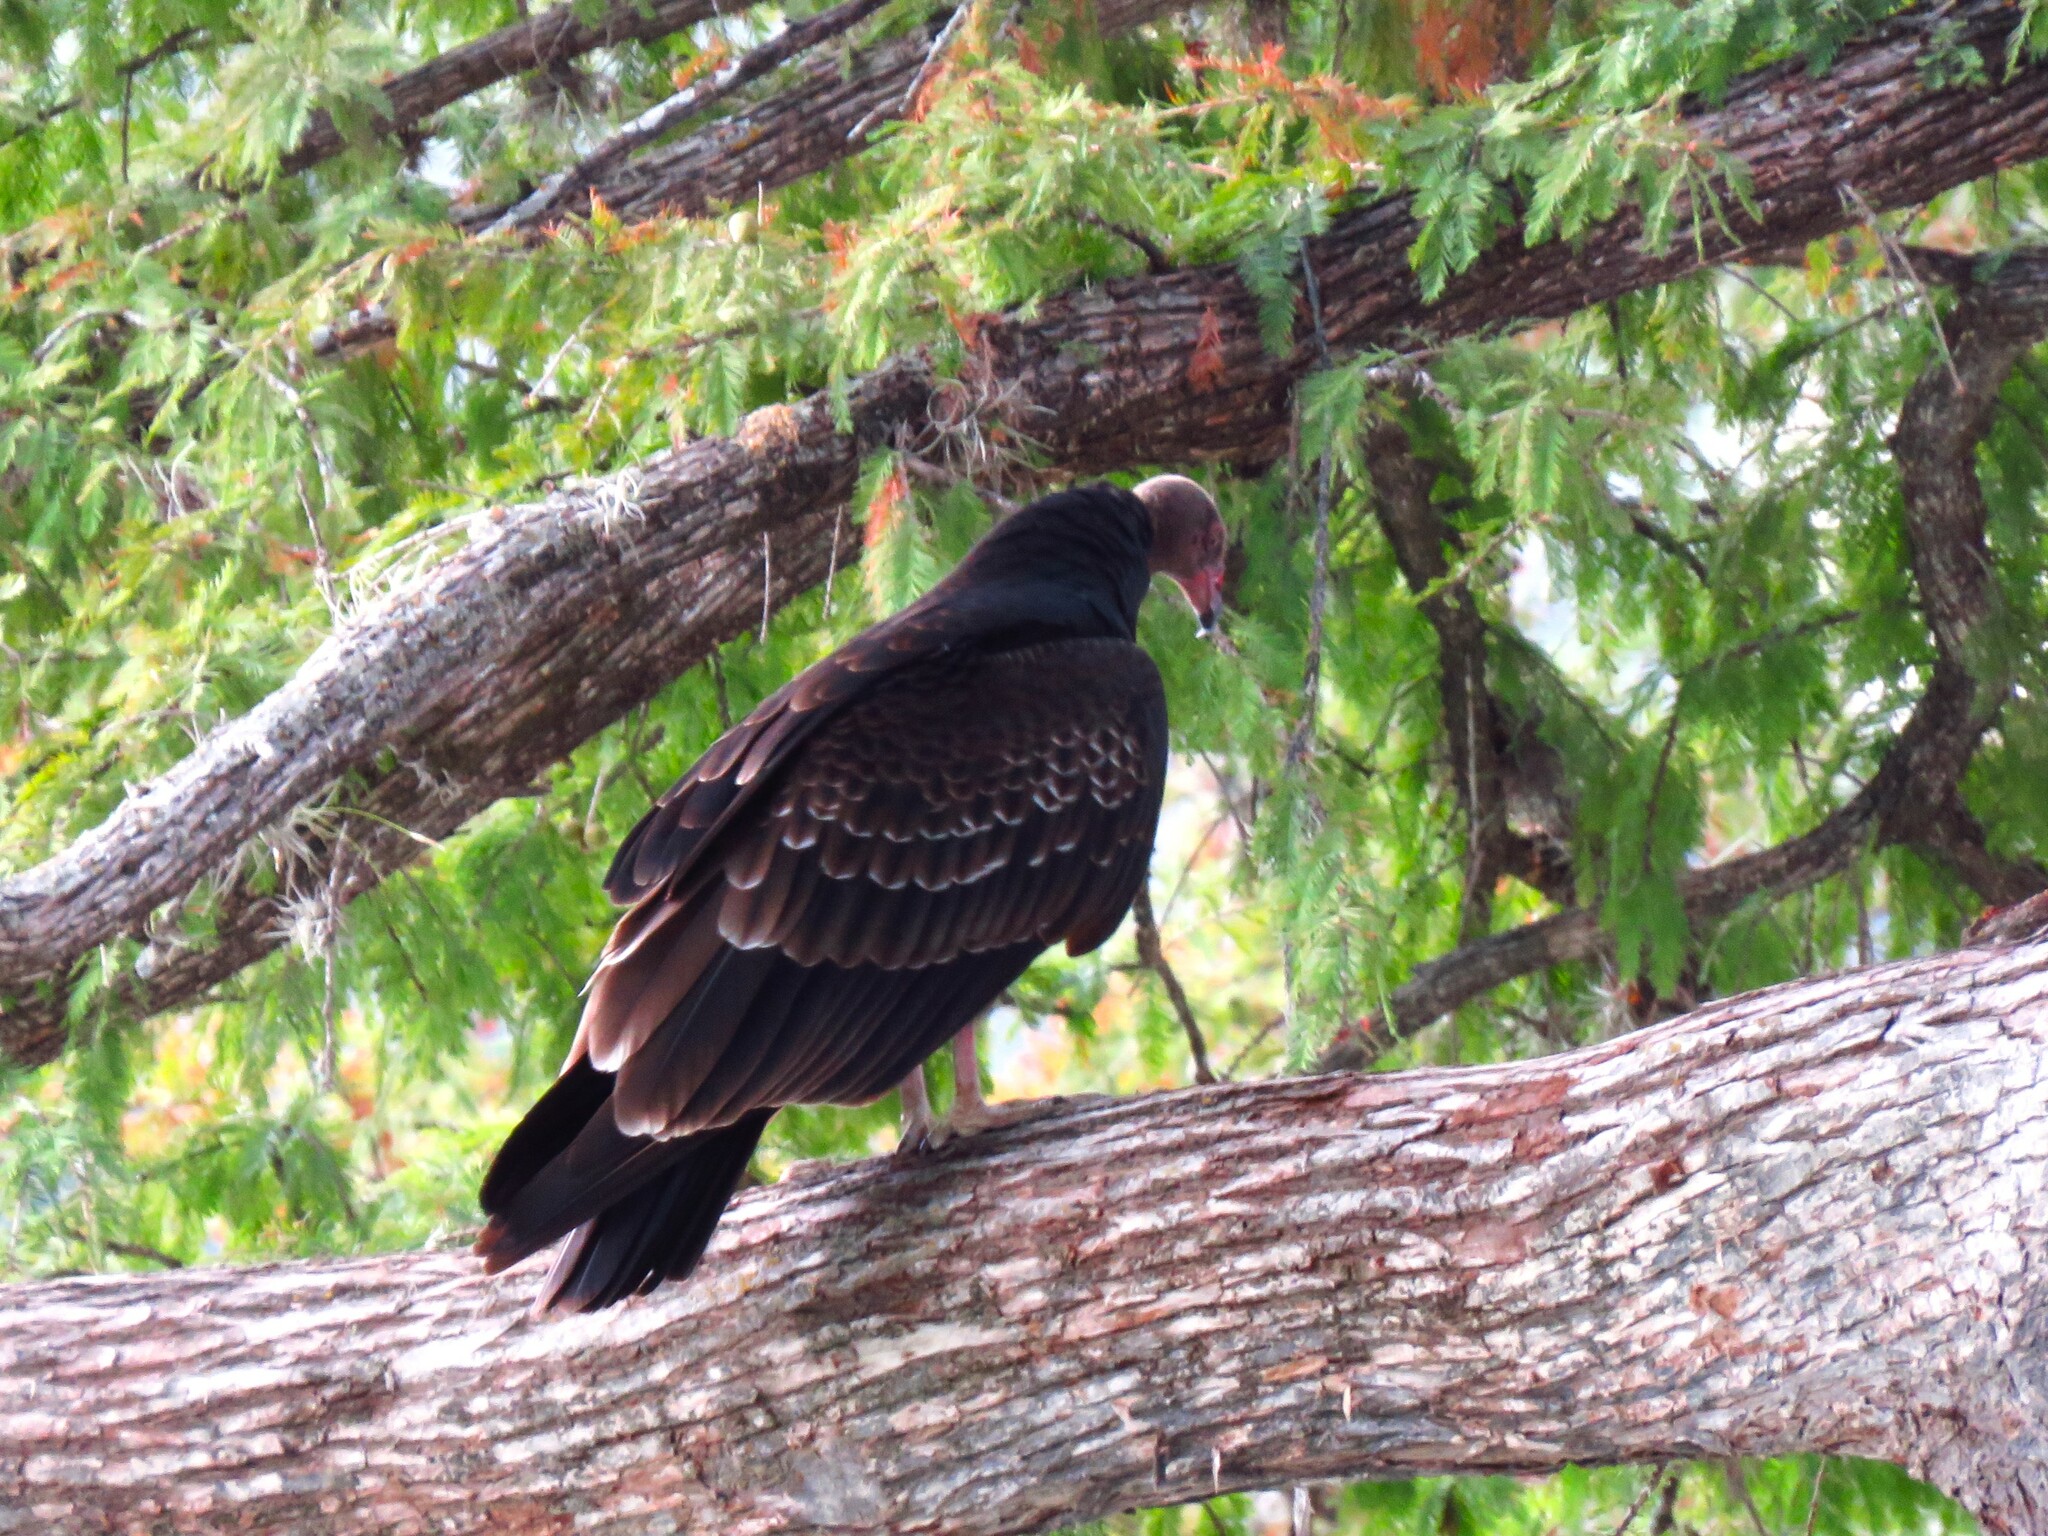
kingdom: Animalia
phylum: Chordata
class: Aves
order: Accipitriformes
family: Cathartidae
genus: Cathartes
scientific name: Cathartes aura
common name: Turkey vulture
